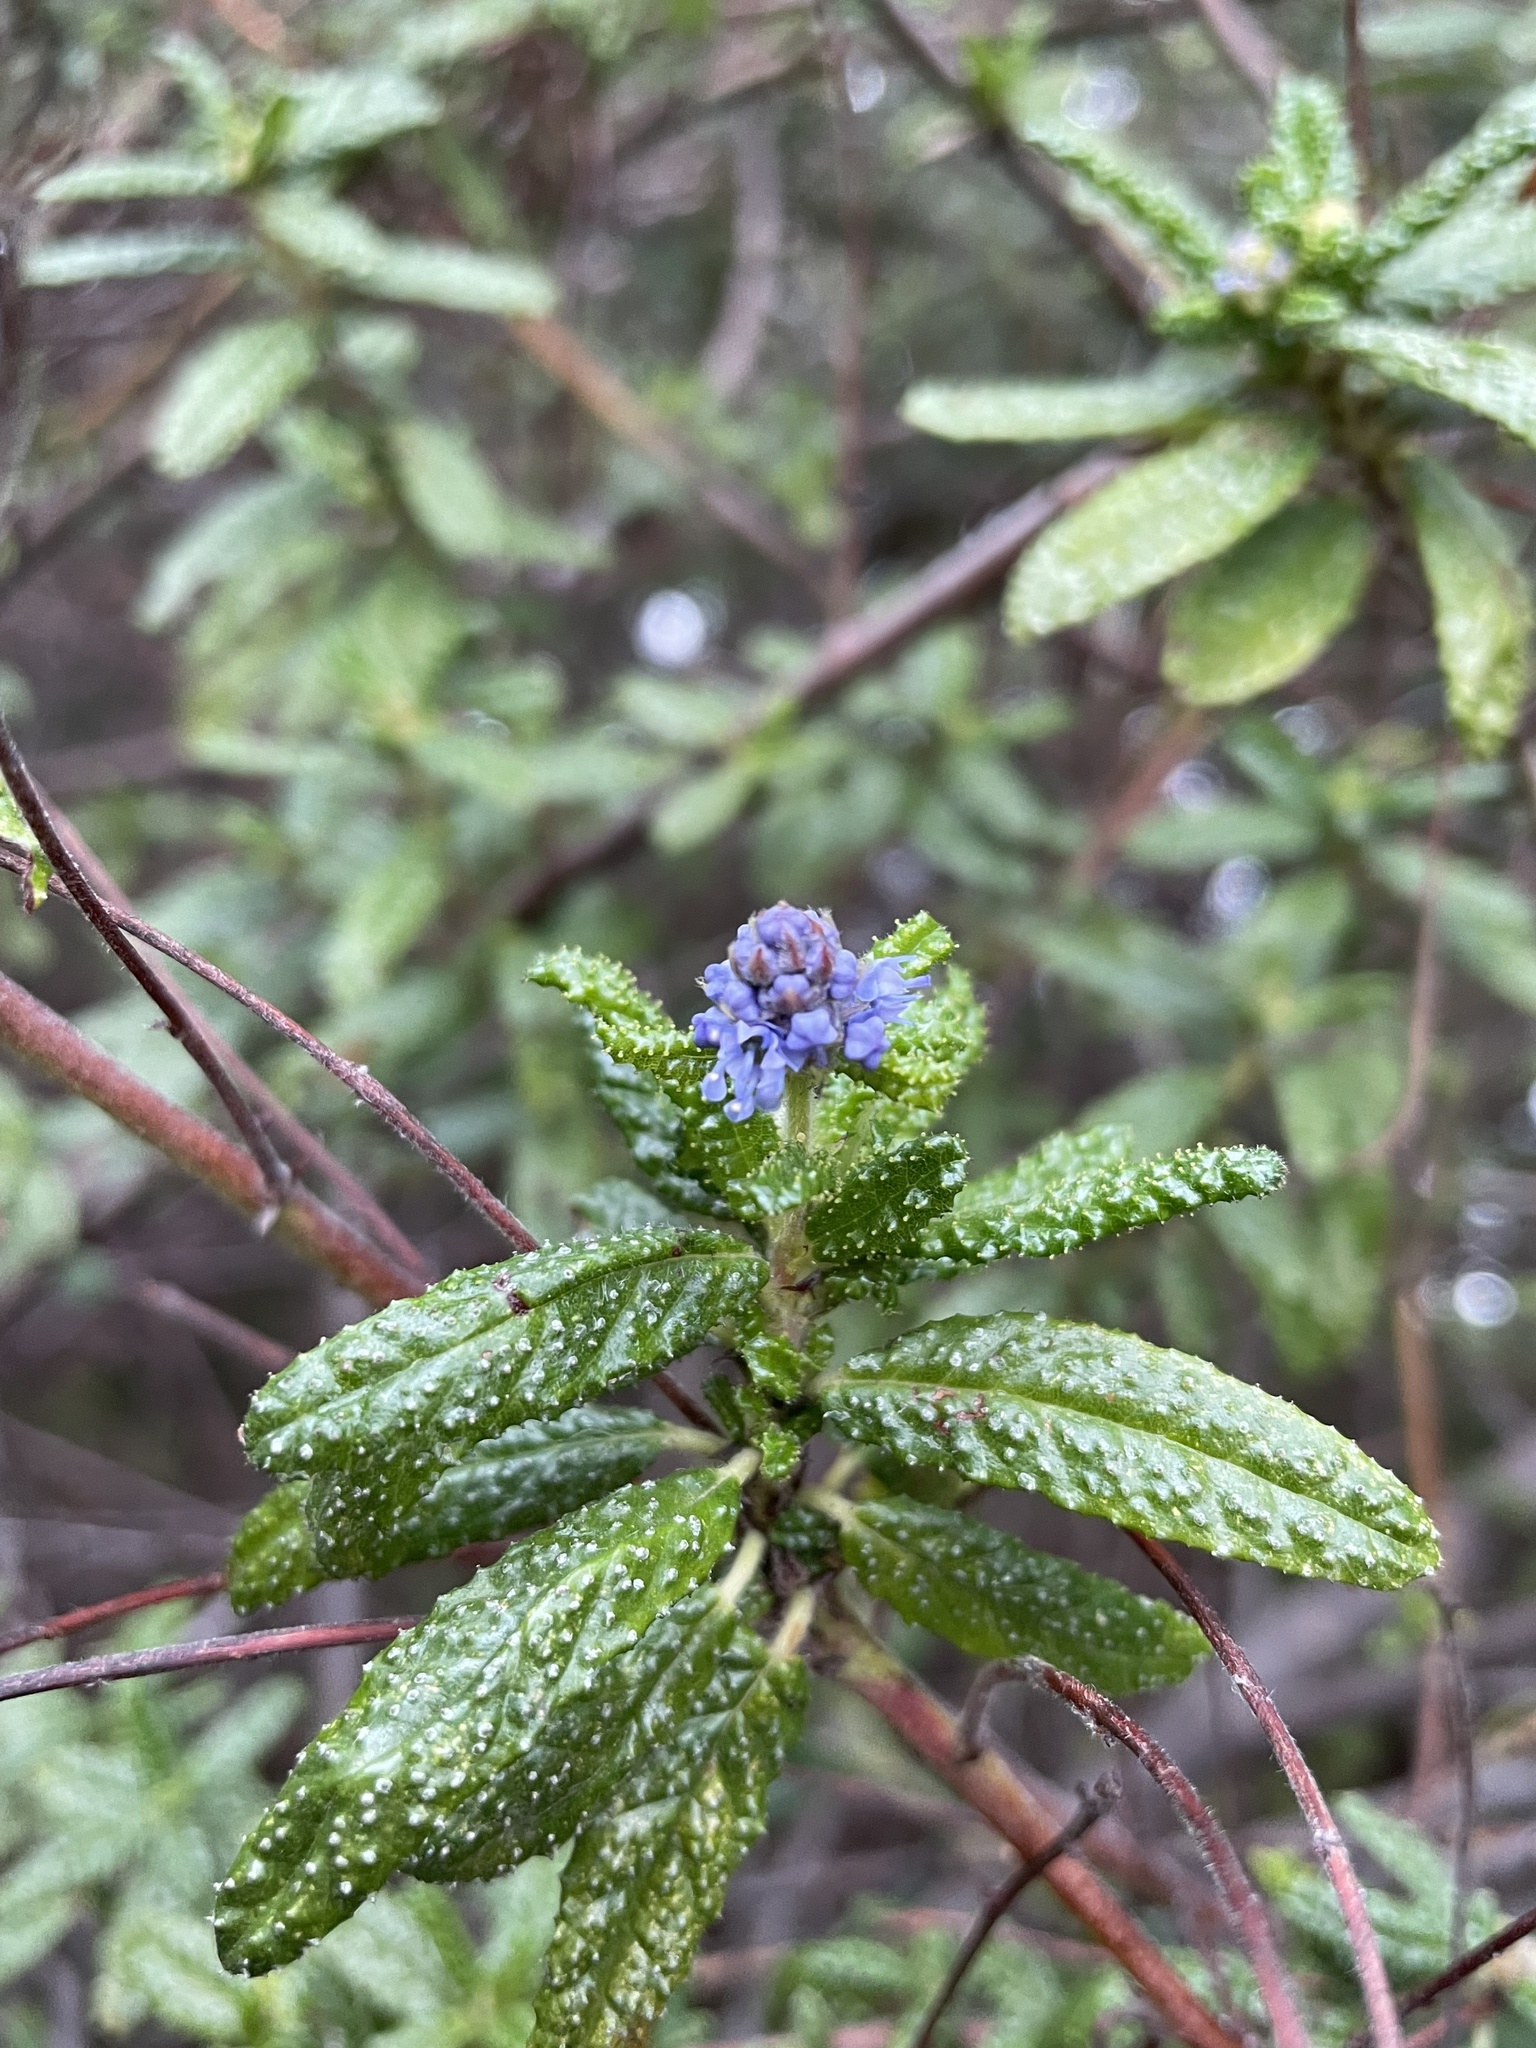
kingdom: Plantae
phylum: Tracheophyta
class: Magnoliopsida
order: Rosales
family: Rhamnaceae
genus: Ceanothus
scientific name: Ceanothus papillosus
